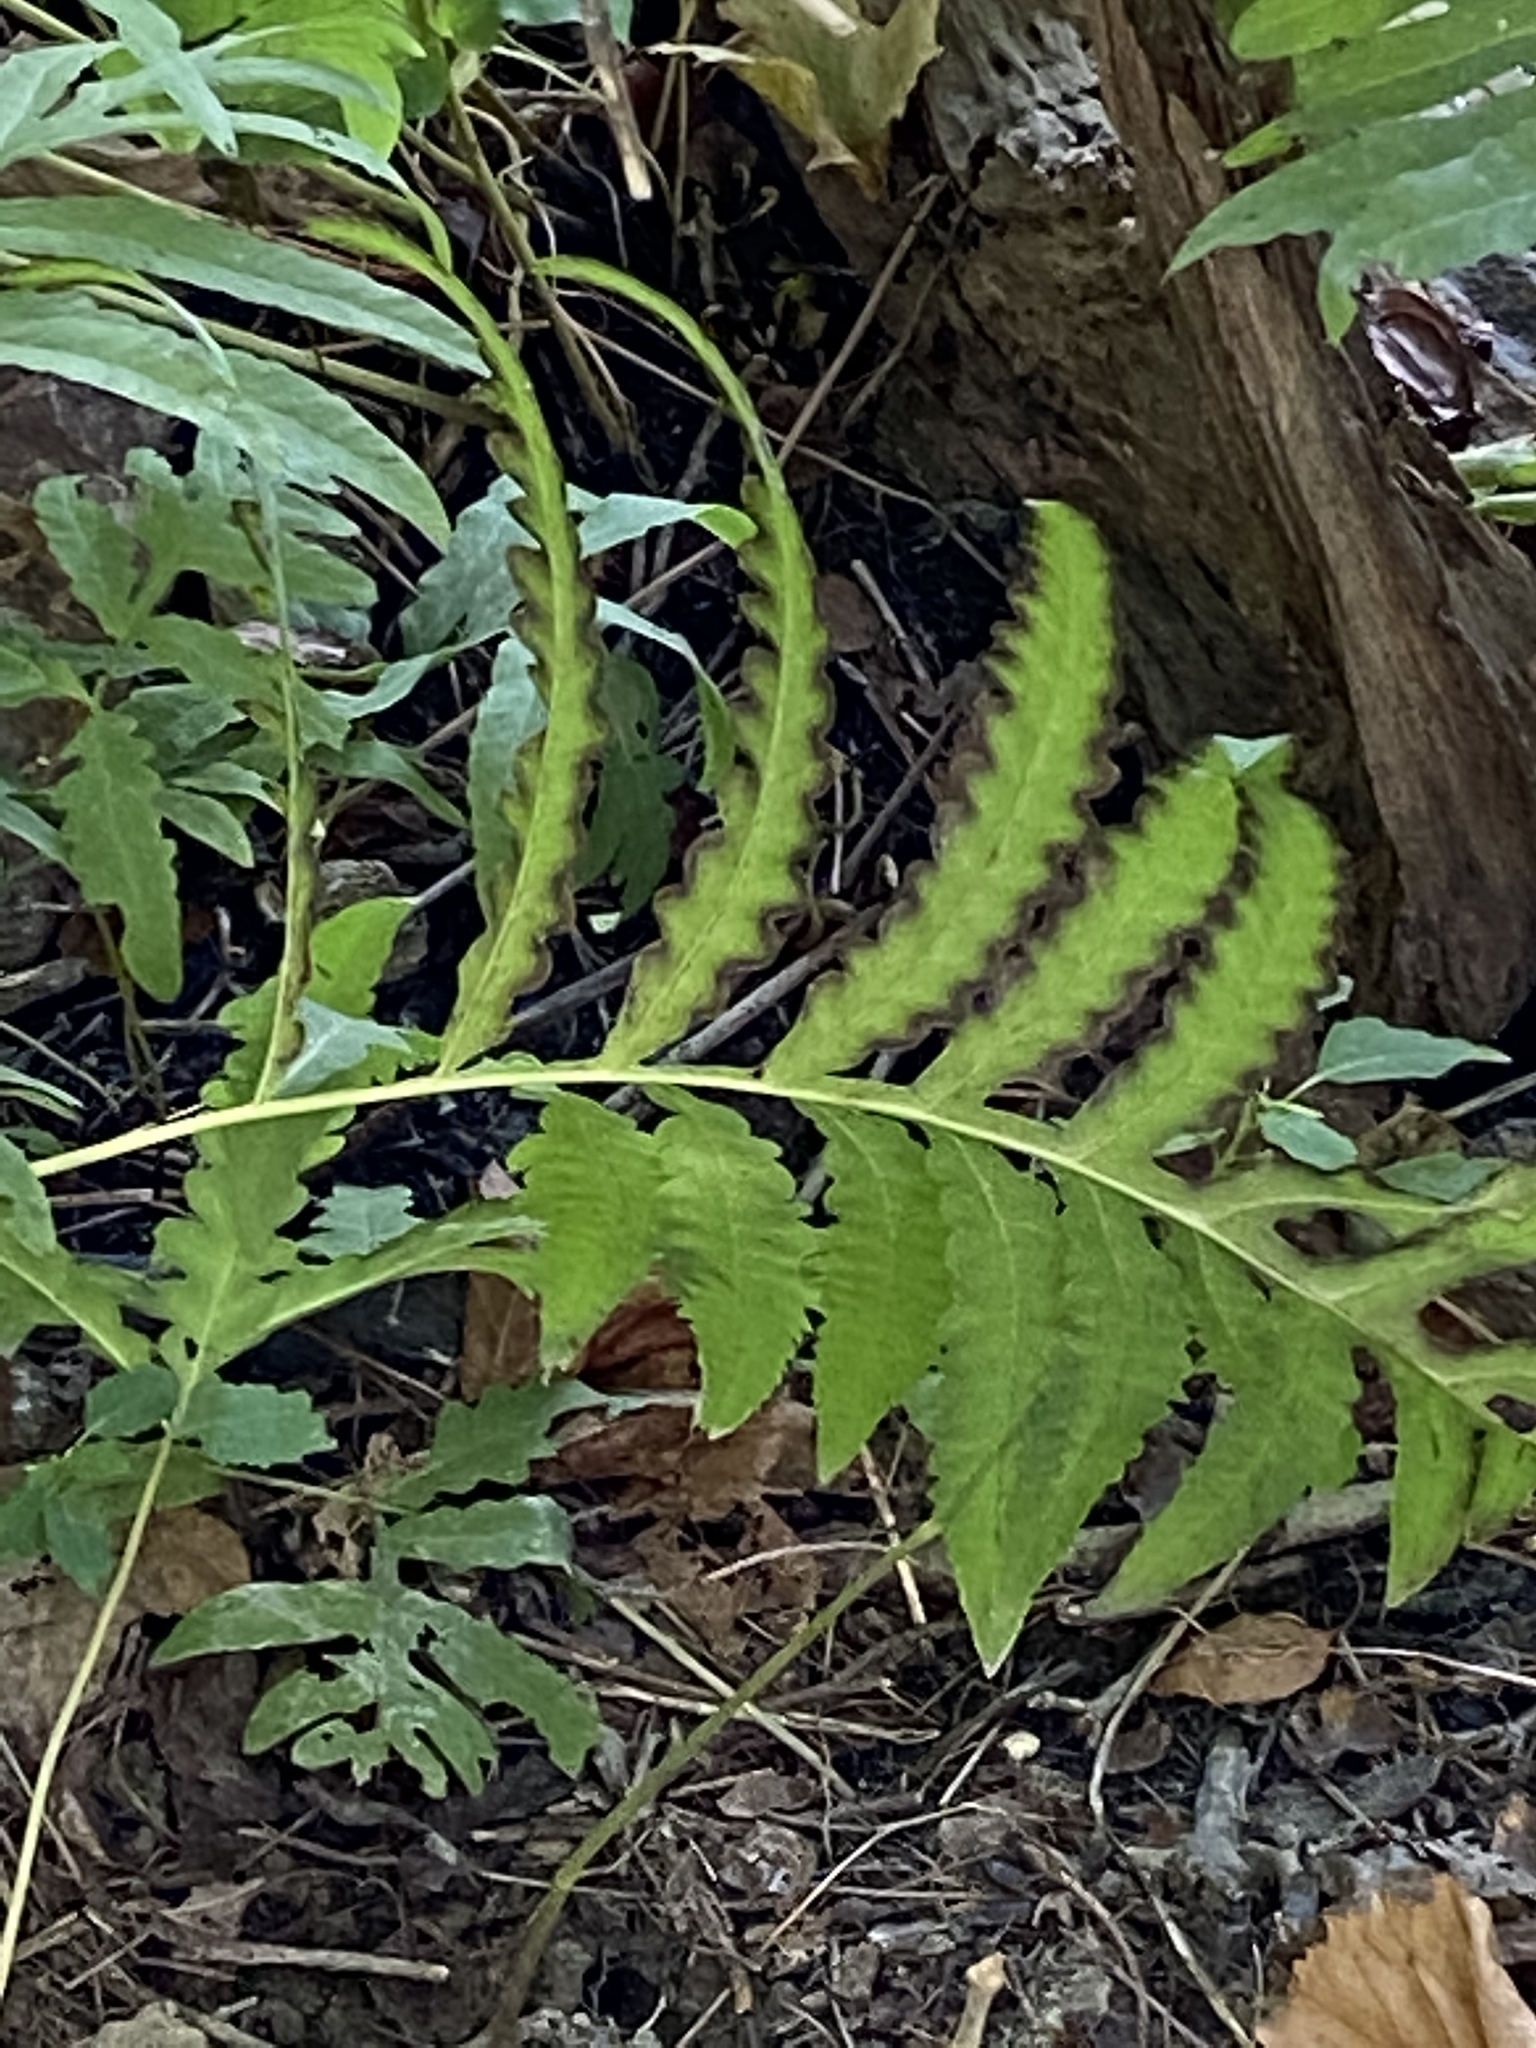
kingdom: Plantae
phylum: Tracheophyta
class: Polypodiopsida
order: Polypodiales
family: Onocleaceae
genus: Onoclea
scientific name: Onoclea sensibilis
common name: Sensitive fern
